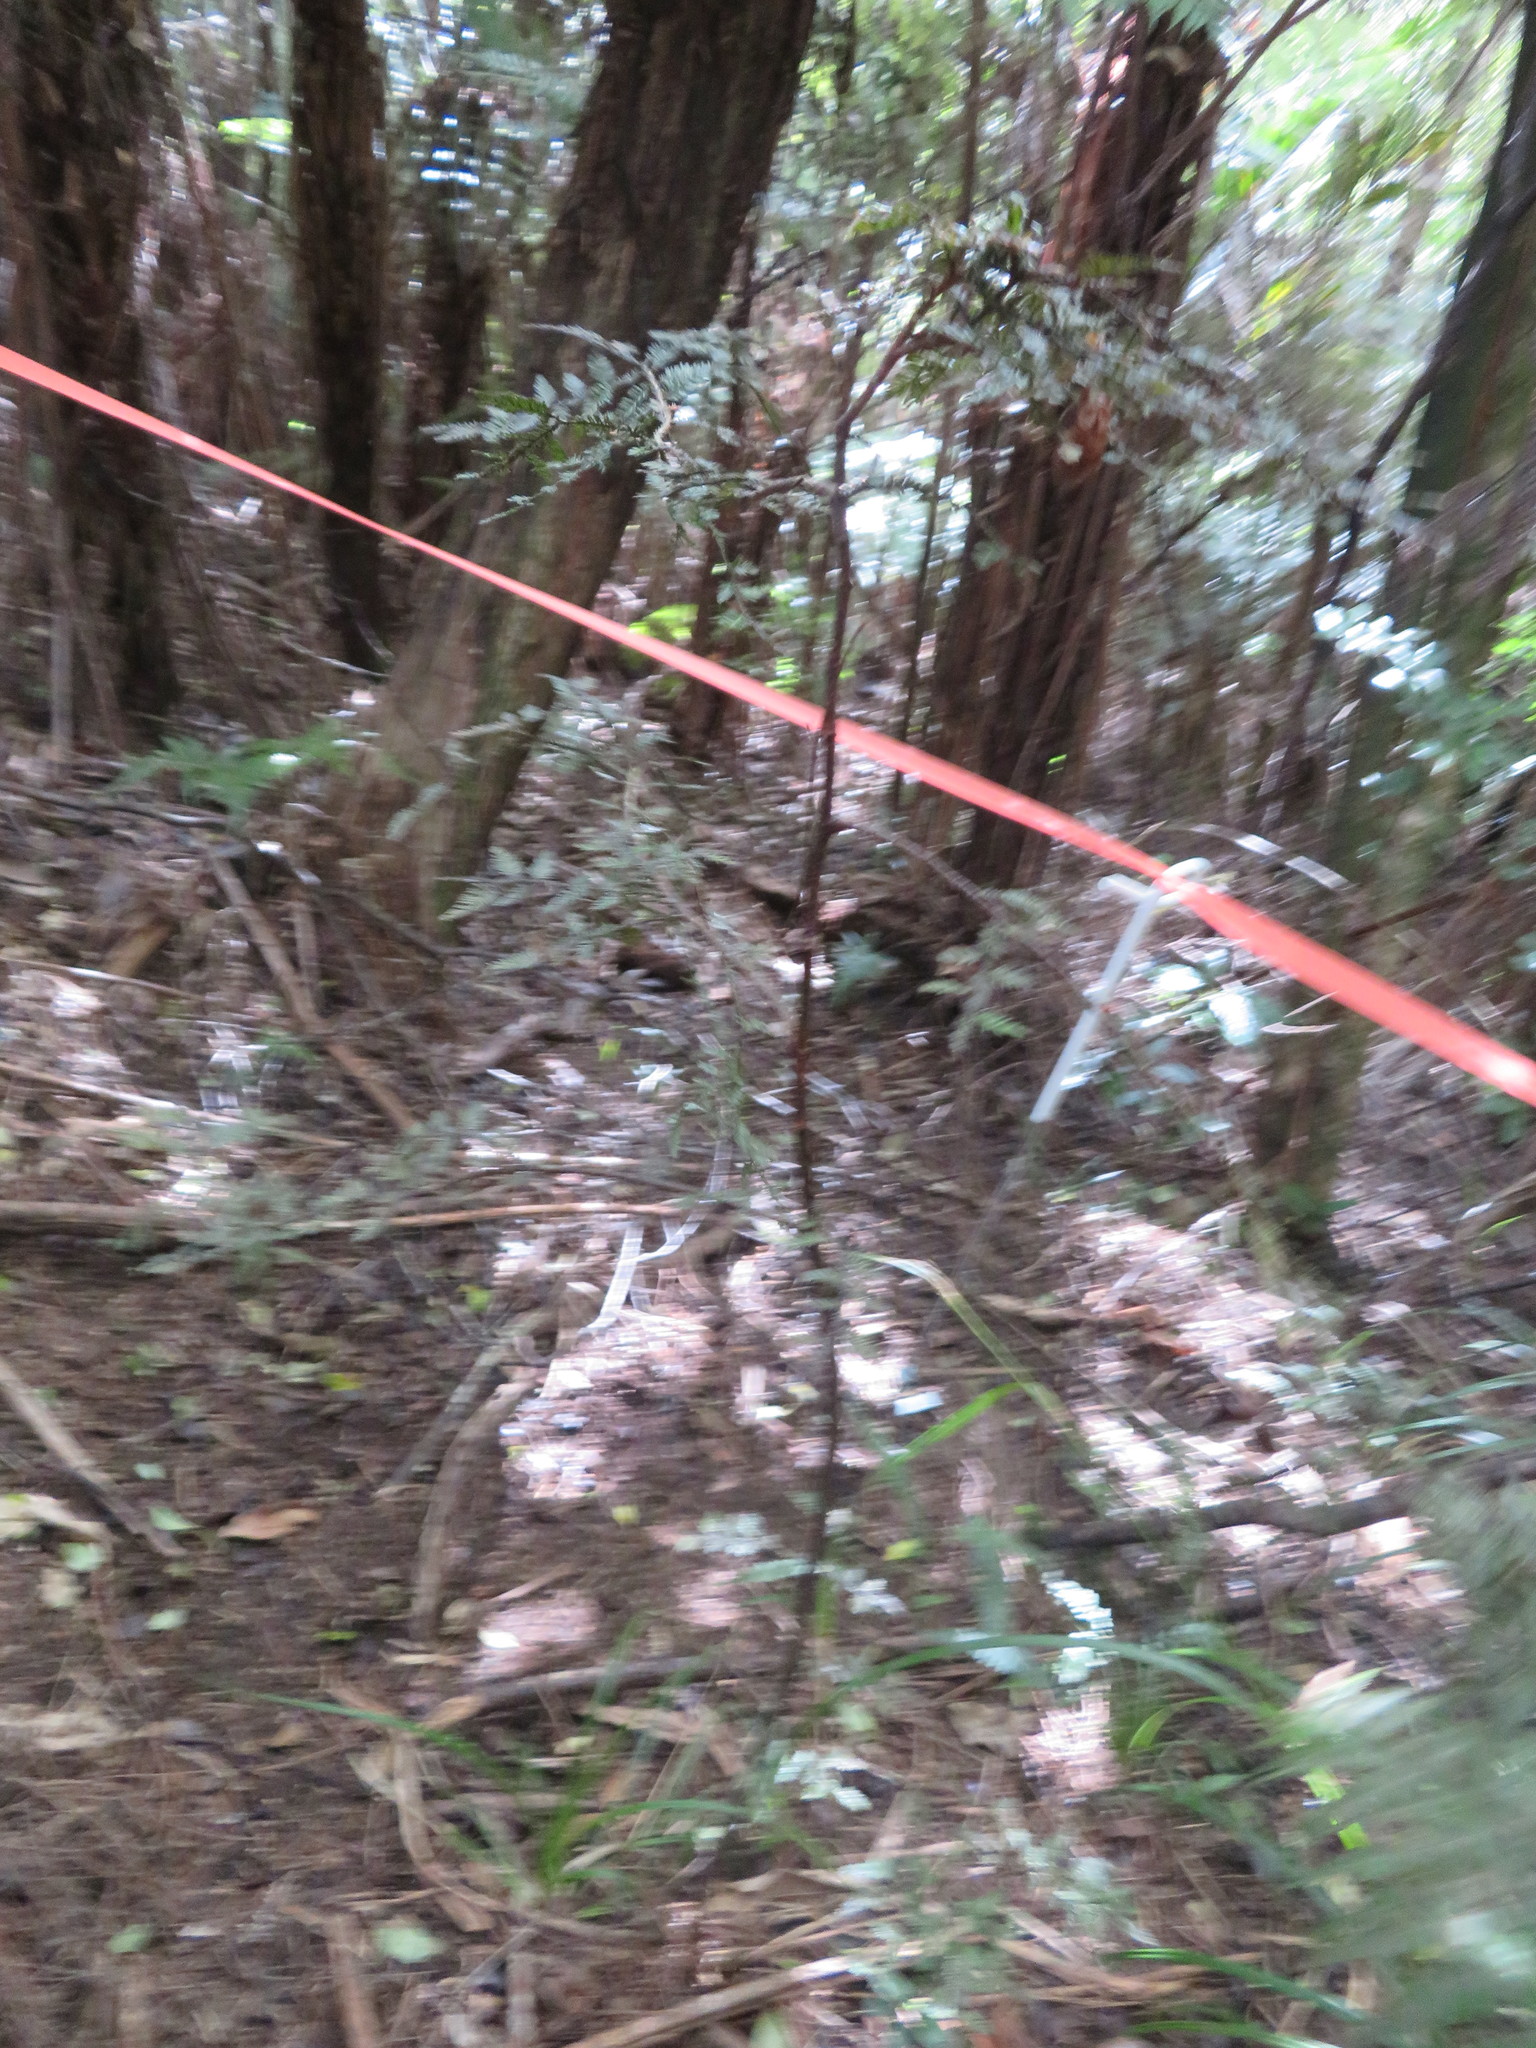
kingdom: Plantae
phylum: Tracheophyta
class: Pinopsida
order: Pinales
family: Podocarpaceae
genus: Dacrycarpus
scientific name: Dacrycarpus dacrydioides
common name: White pine
